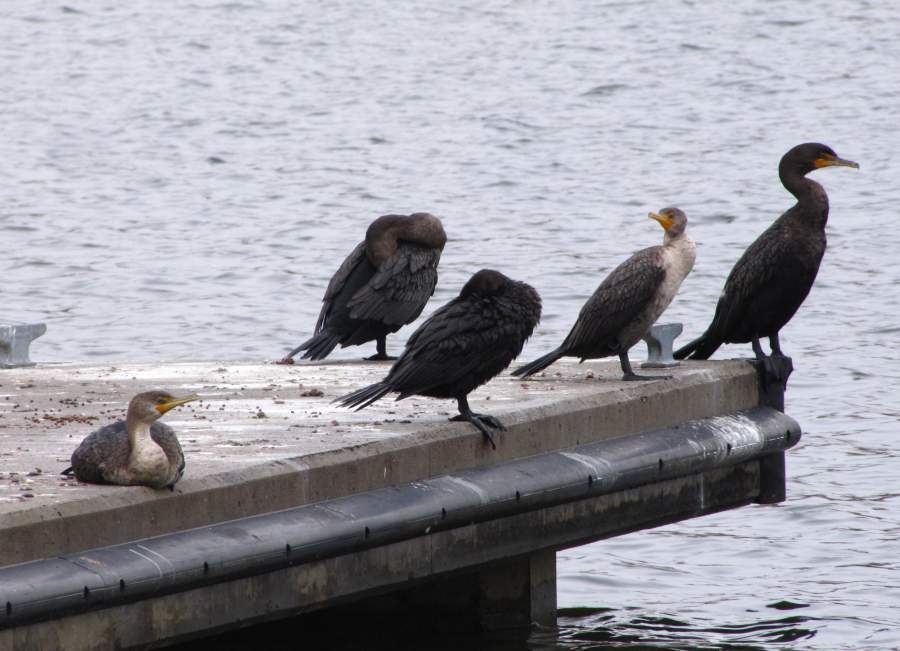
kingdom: Animalia
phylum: Chordata
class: Aves
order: Suliformes
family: Phalacrocoracidae
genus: Phalacrocorax
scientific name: Phalacrocorax auritus
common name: Double-crested cormorant
